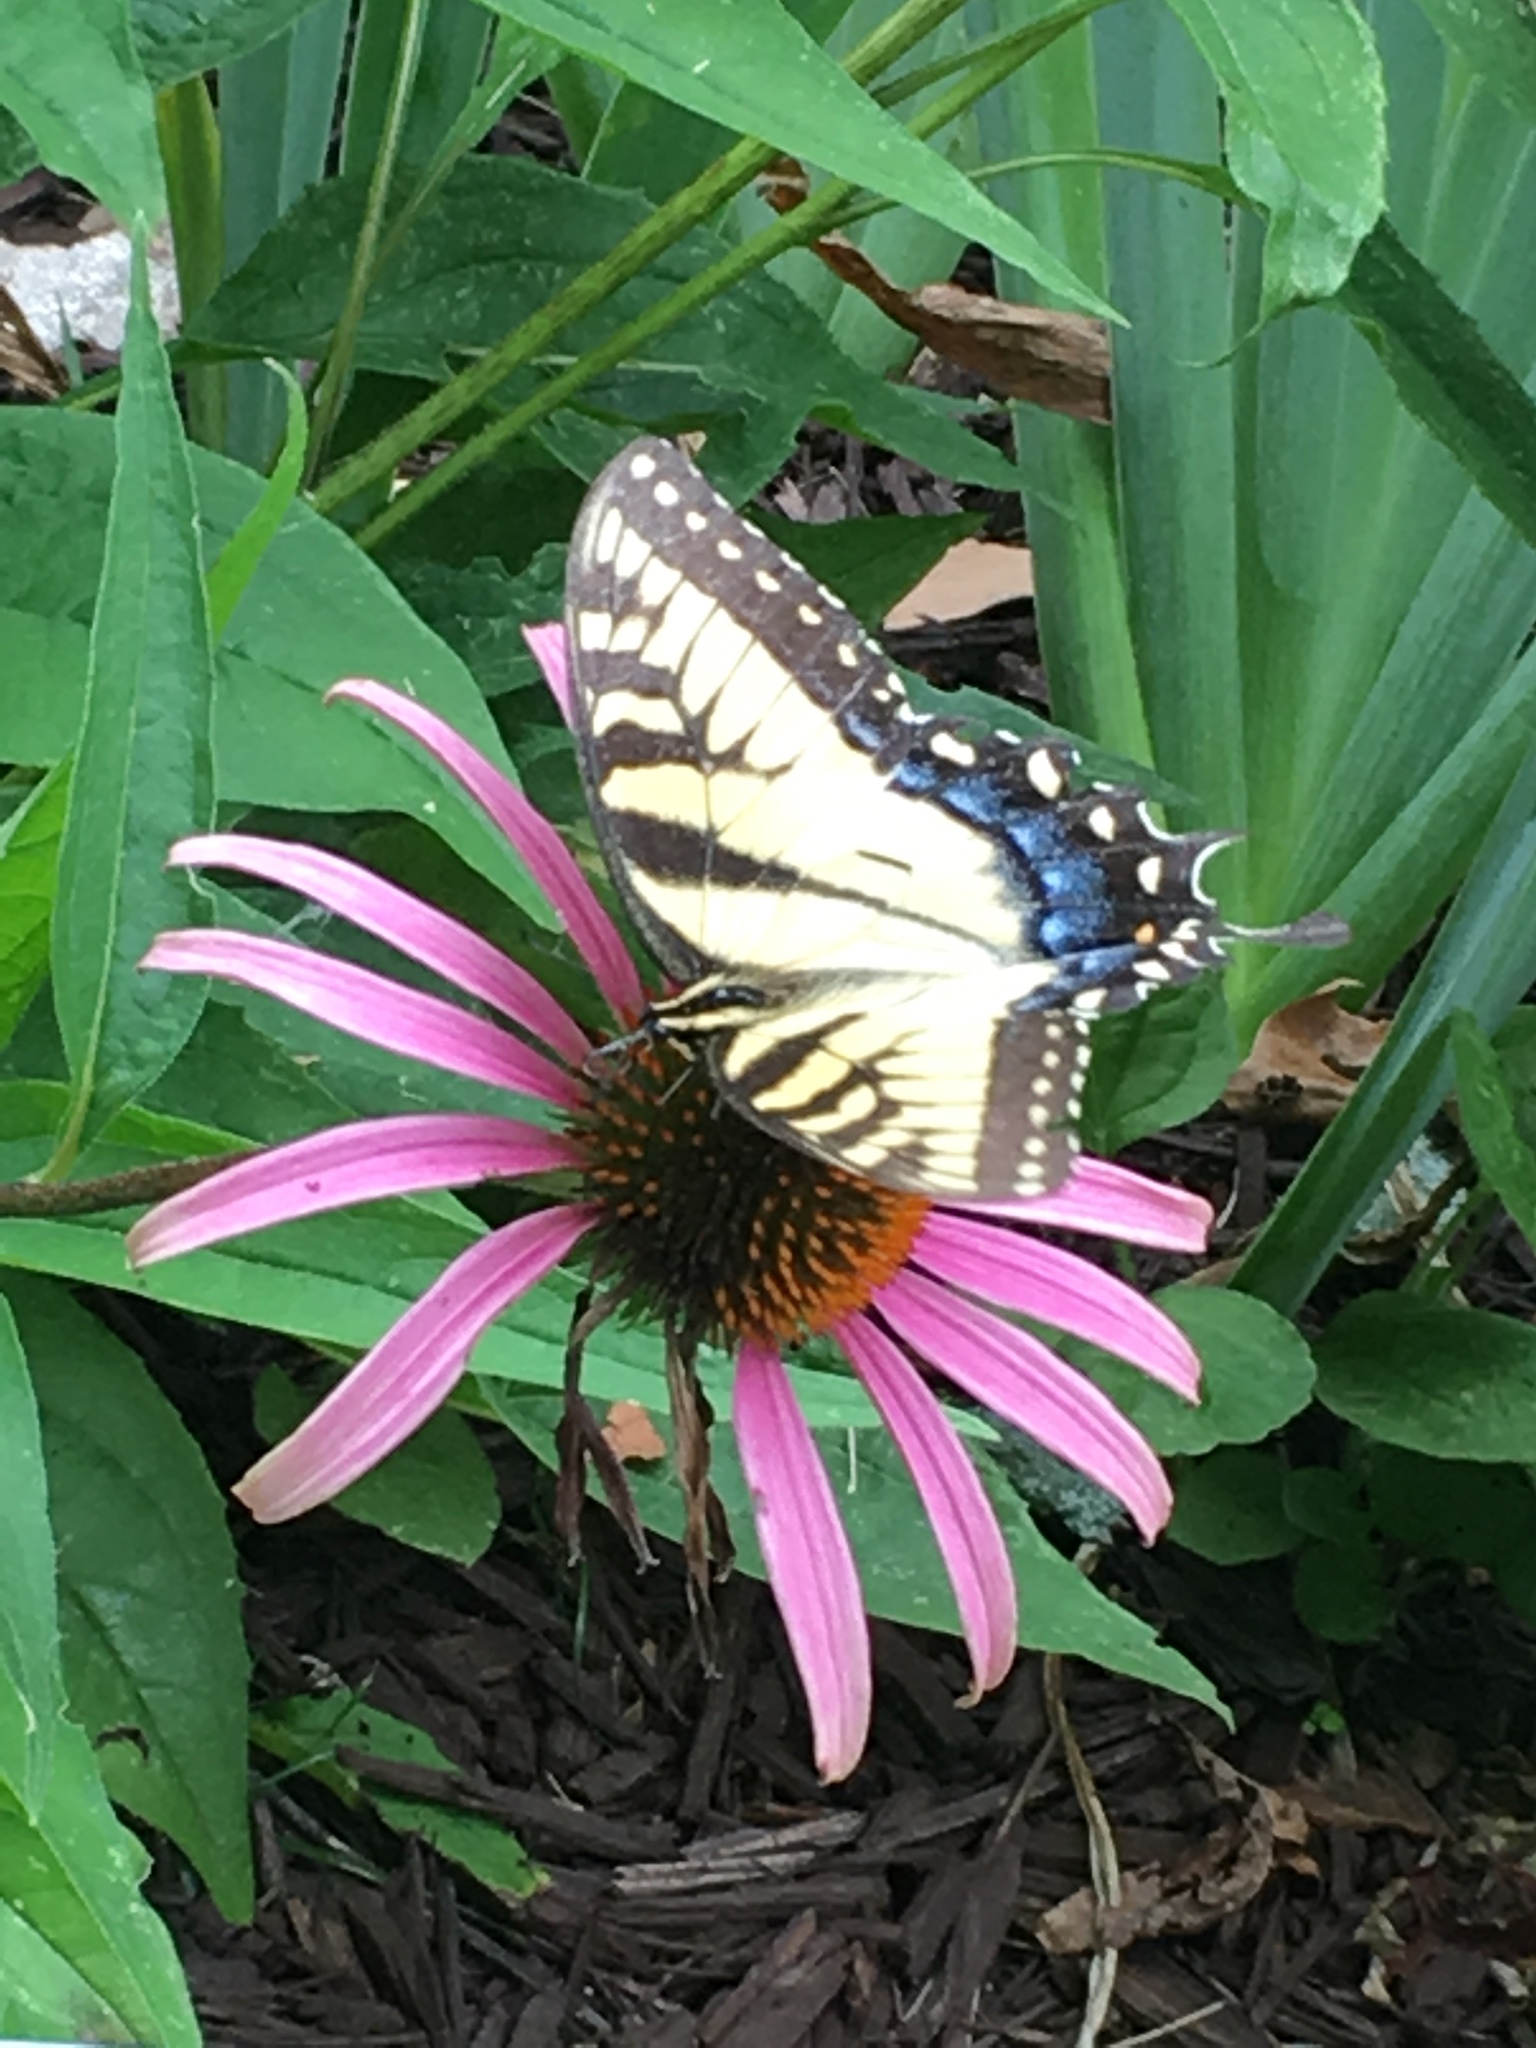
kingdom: Animalia
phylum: Arthropoda
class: Insecta
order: Lepidoptera
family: Papilionidae
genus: Papilio
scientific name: Papilio glaucus
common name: Tiger swallowtail
